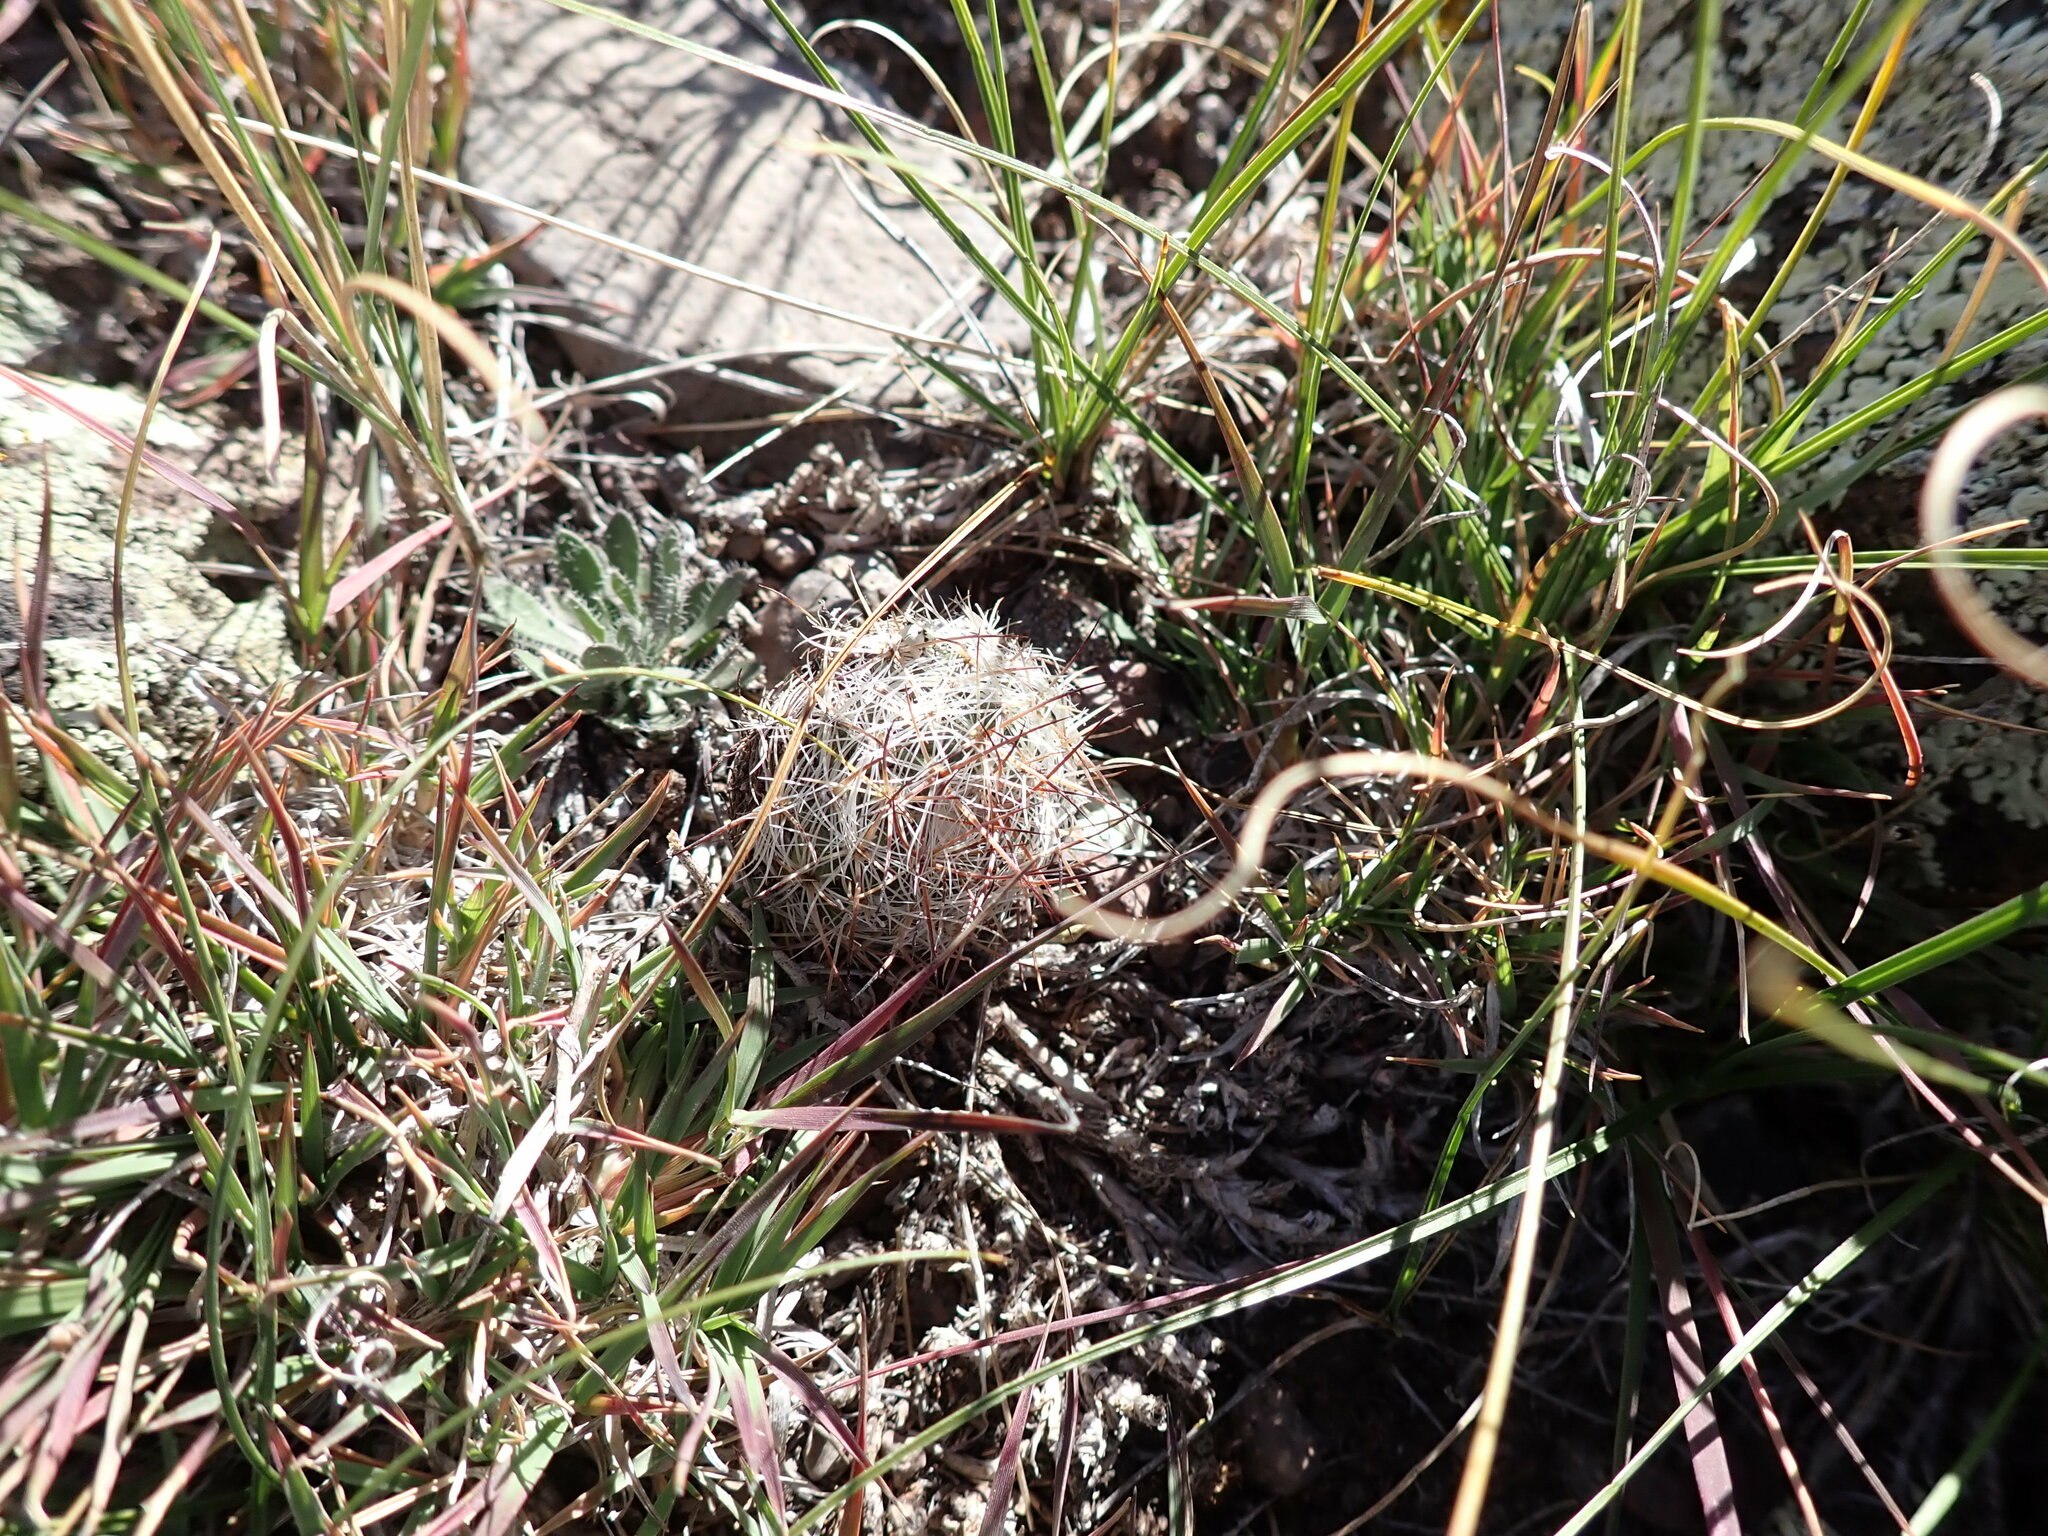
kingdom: Plantae
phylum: Tracheophyta
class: Magnoliopsida
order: Caryophyllales
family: Cactaceae
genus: Pediocactus
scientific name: Pediocactus simpsonii
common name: Simpson's hedgehog cactus
